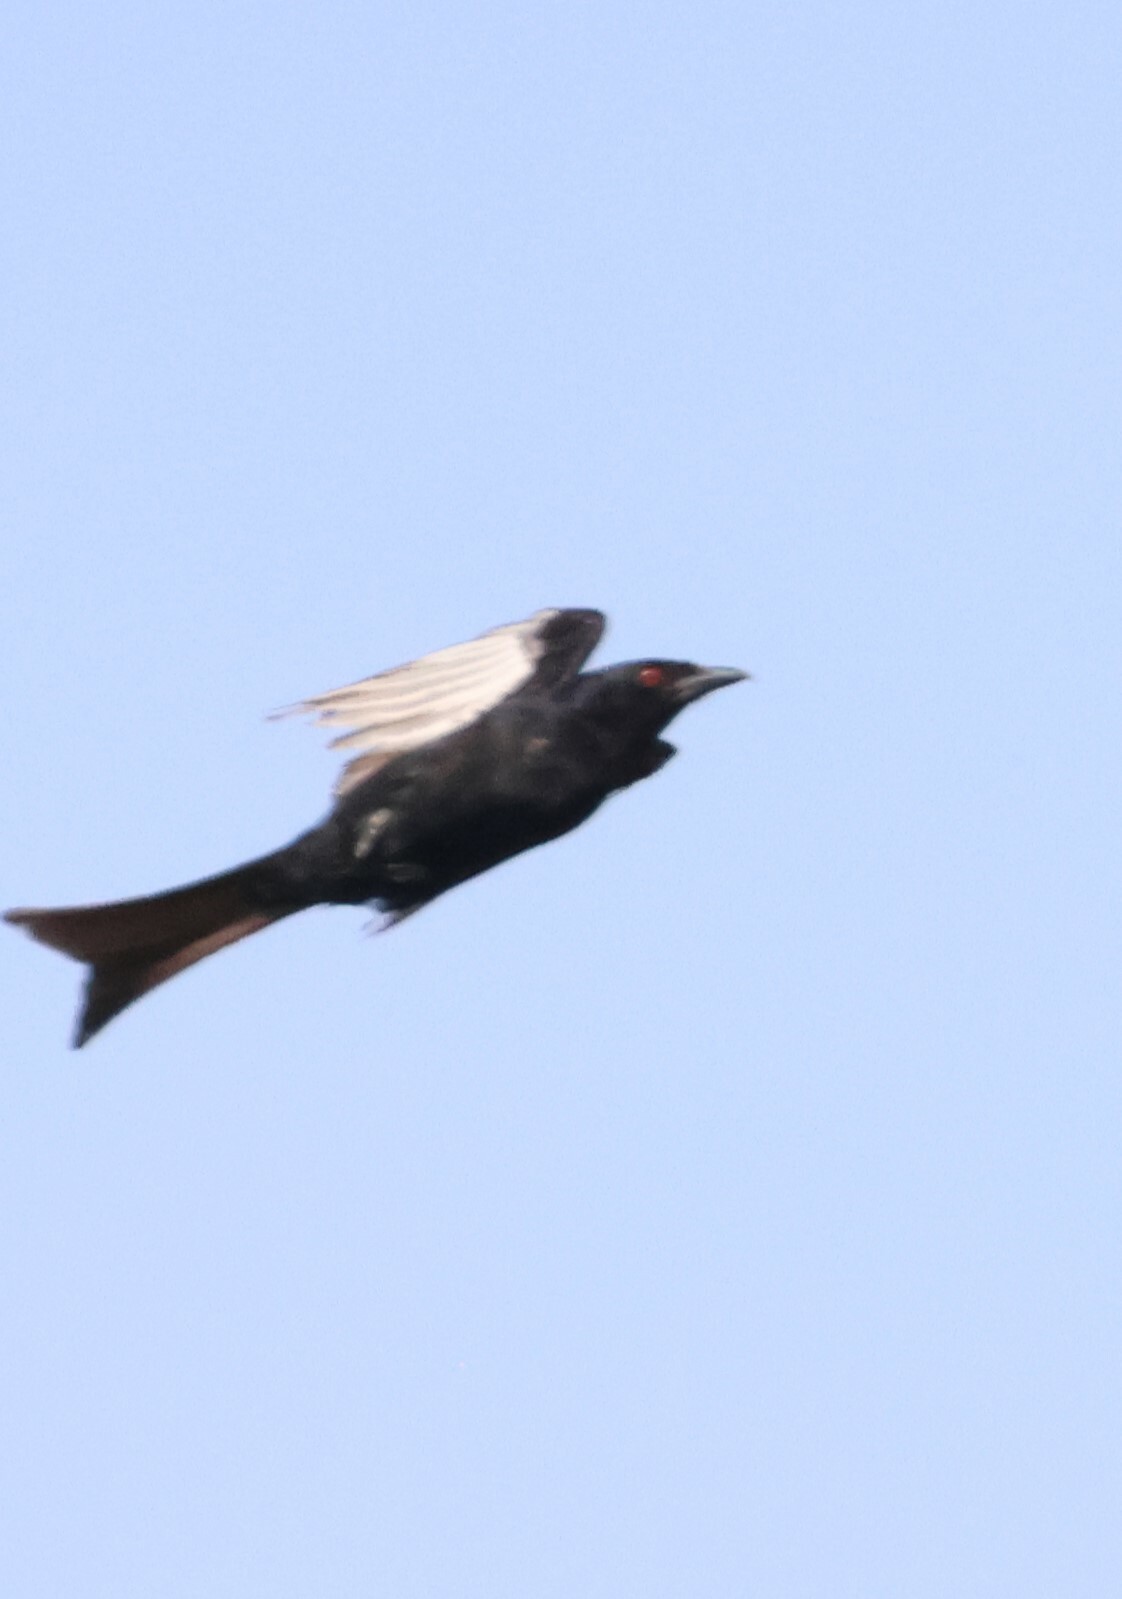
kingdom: Animalia
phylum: Chordata
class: Aves
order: Passeriformes
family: Dicruridae
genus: Dicrurus
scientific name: Dicrurus adsimilis
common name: Fork-tailed drongo
